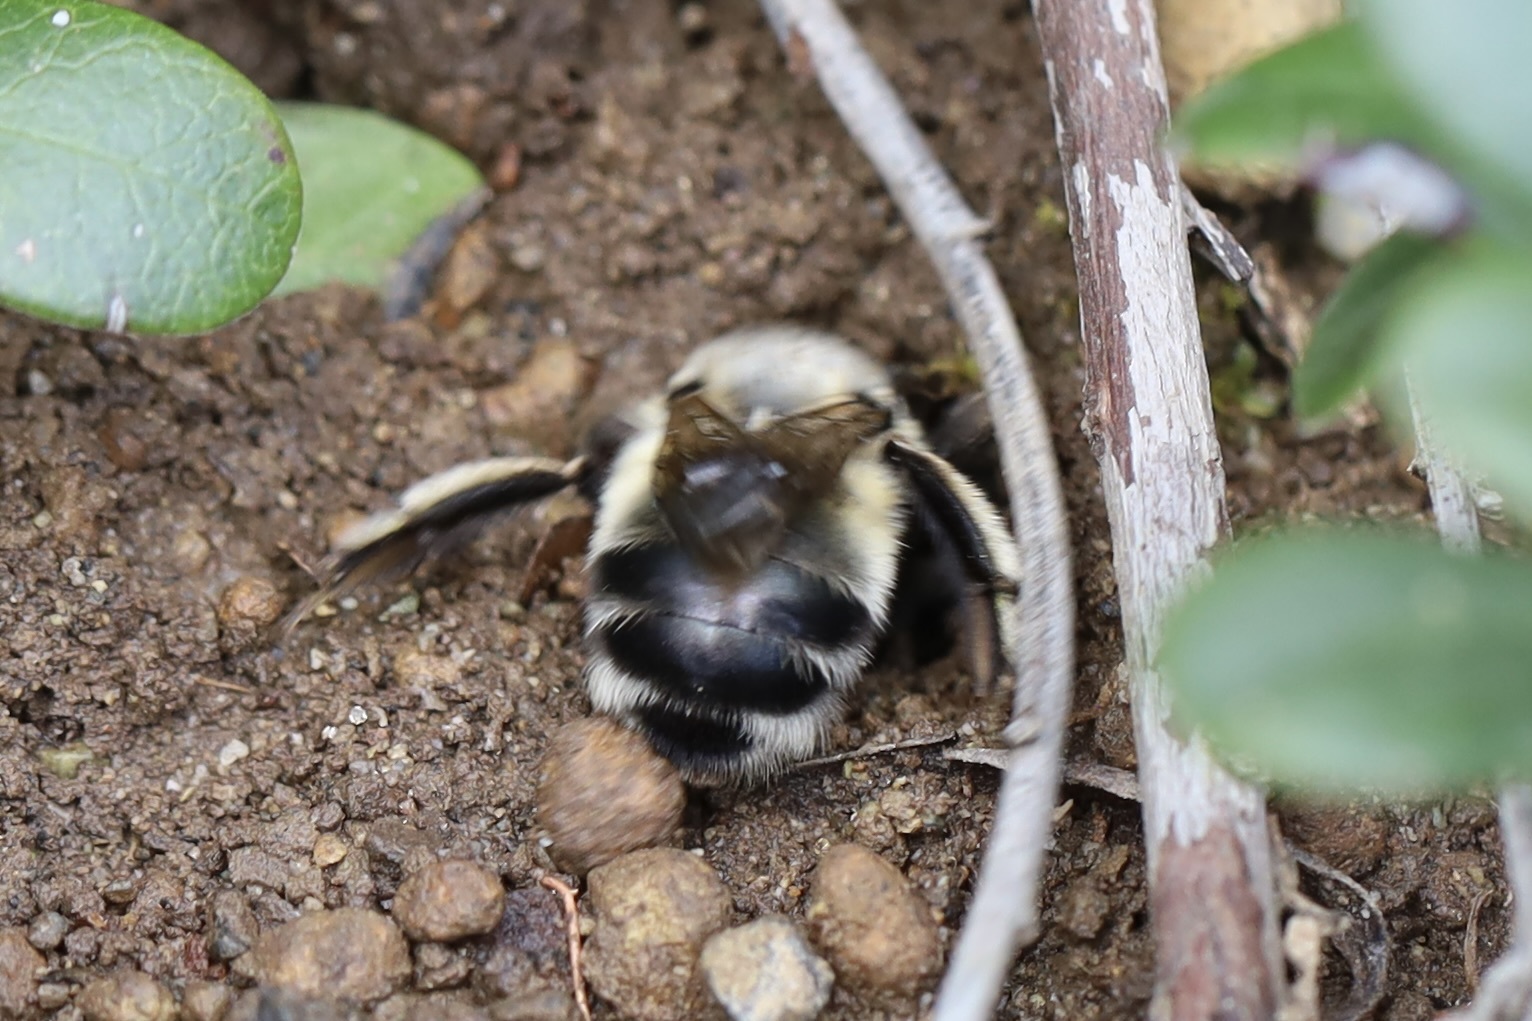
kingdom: Animalia
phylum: Arthropoda
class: Insecta
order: Hymenoptera
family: Apidae
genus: Anthophora
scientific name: Anthophora pacifica
